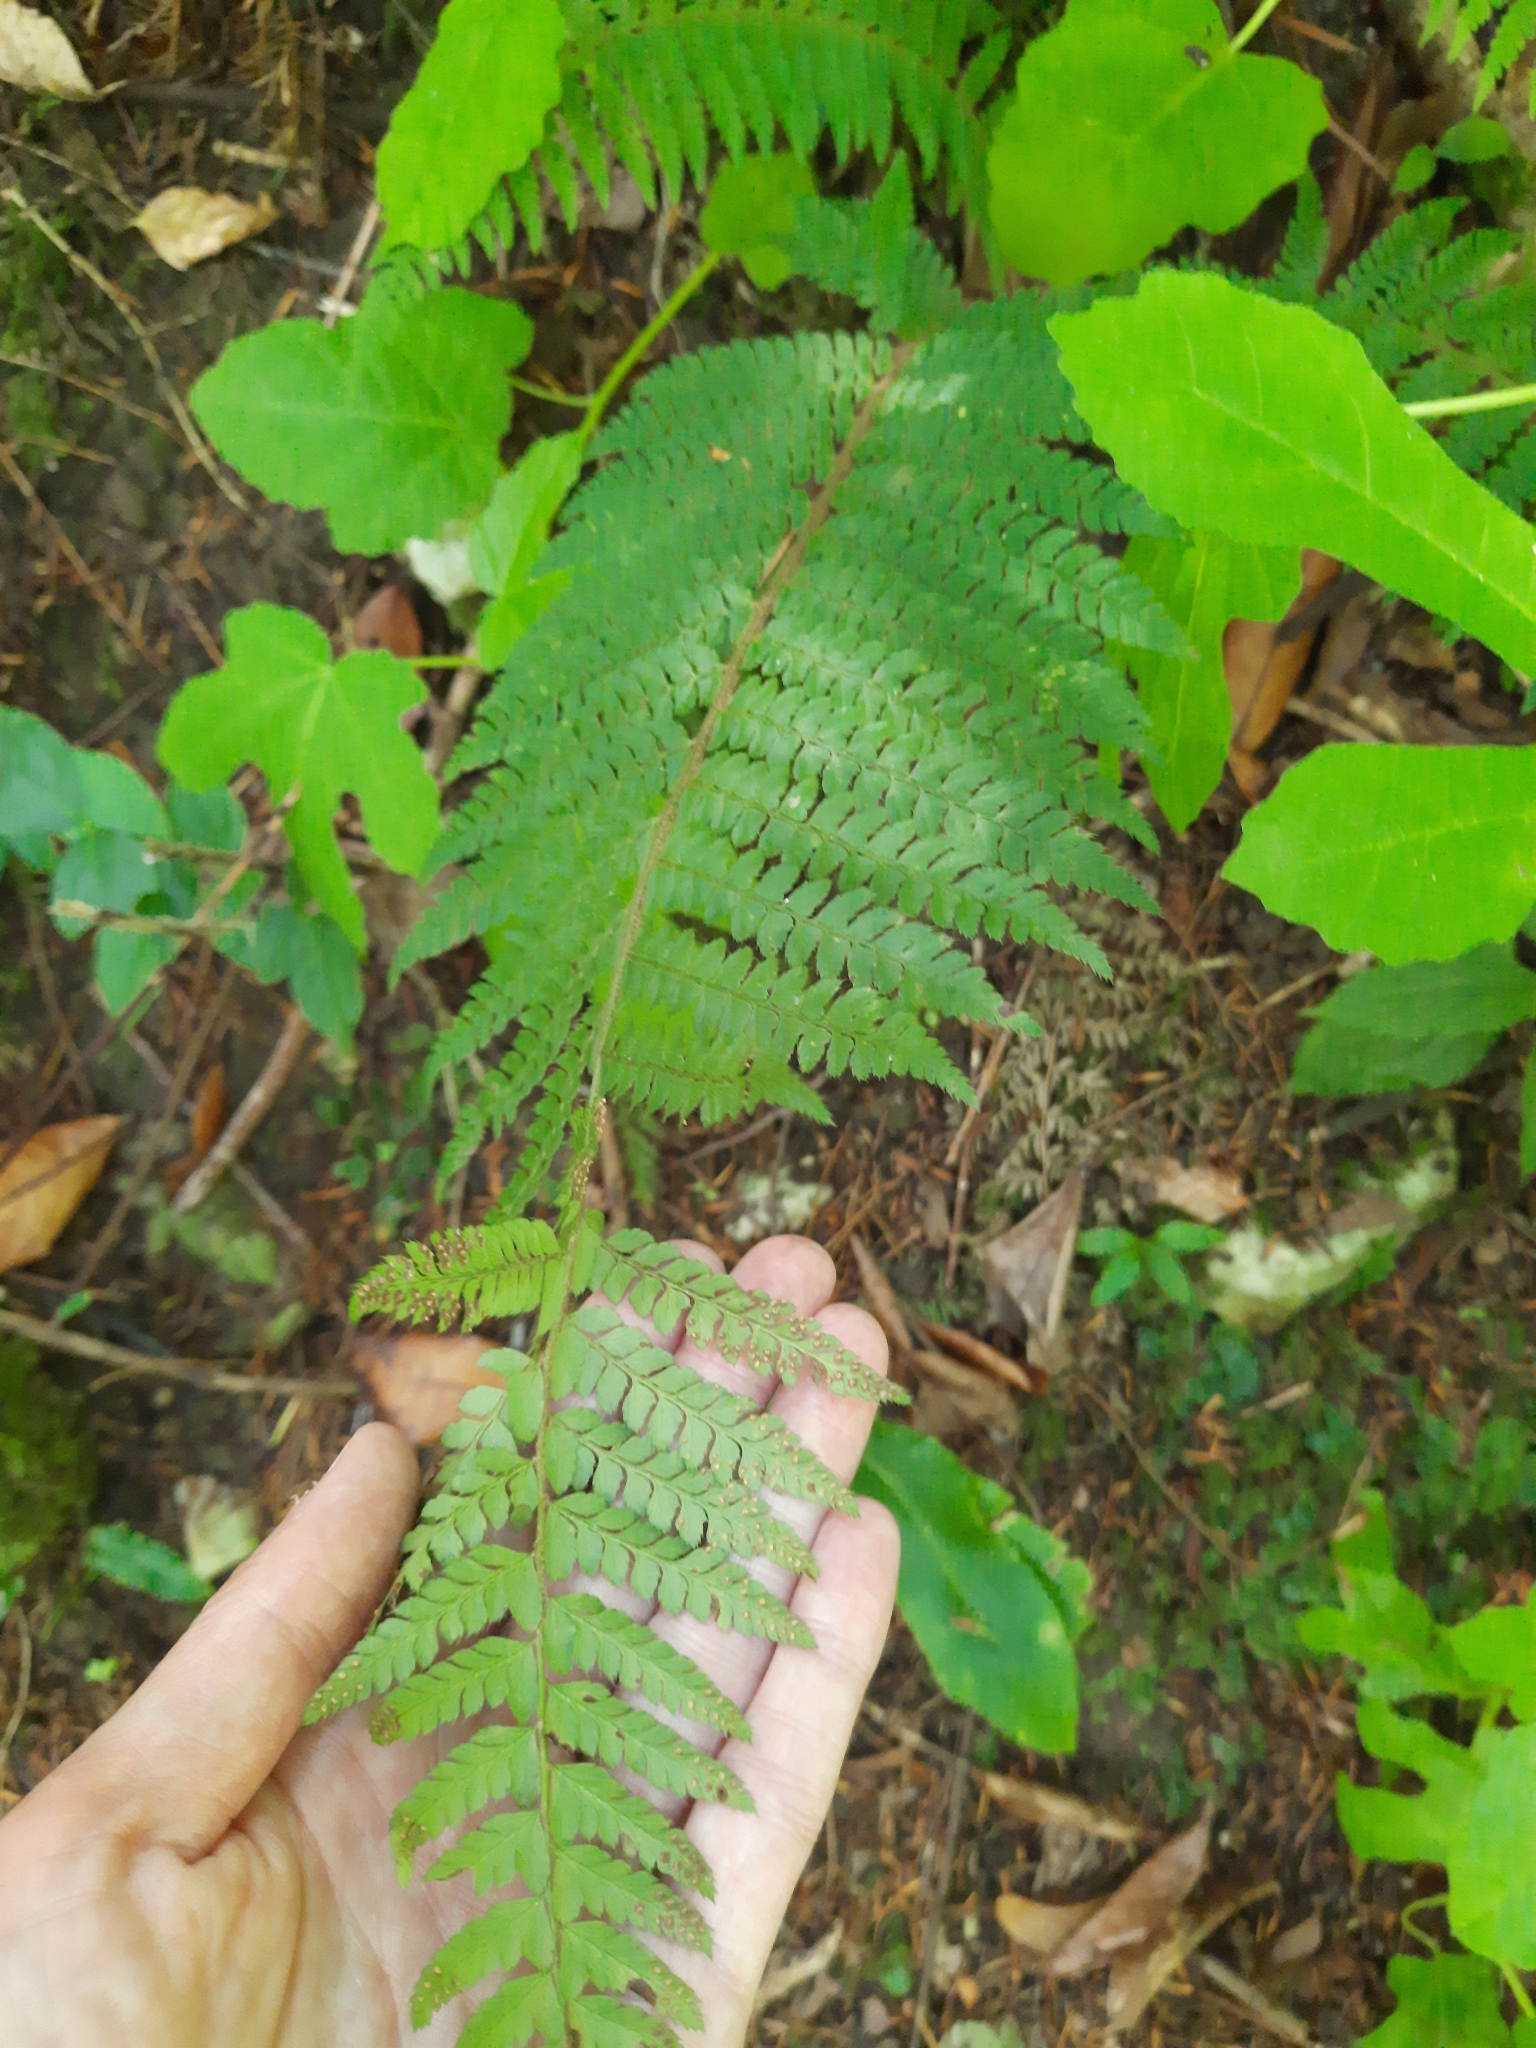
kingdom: Plantae
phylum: Tracheophyta
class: Polypodiopsida
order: Polypodiales
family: Dryopteridaceae
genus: Polystichum
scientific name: Polystichum setiferum
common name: Soft shield-fern
